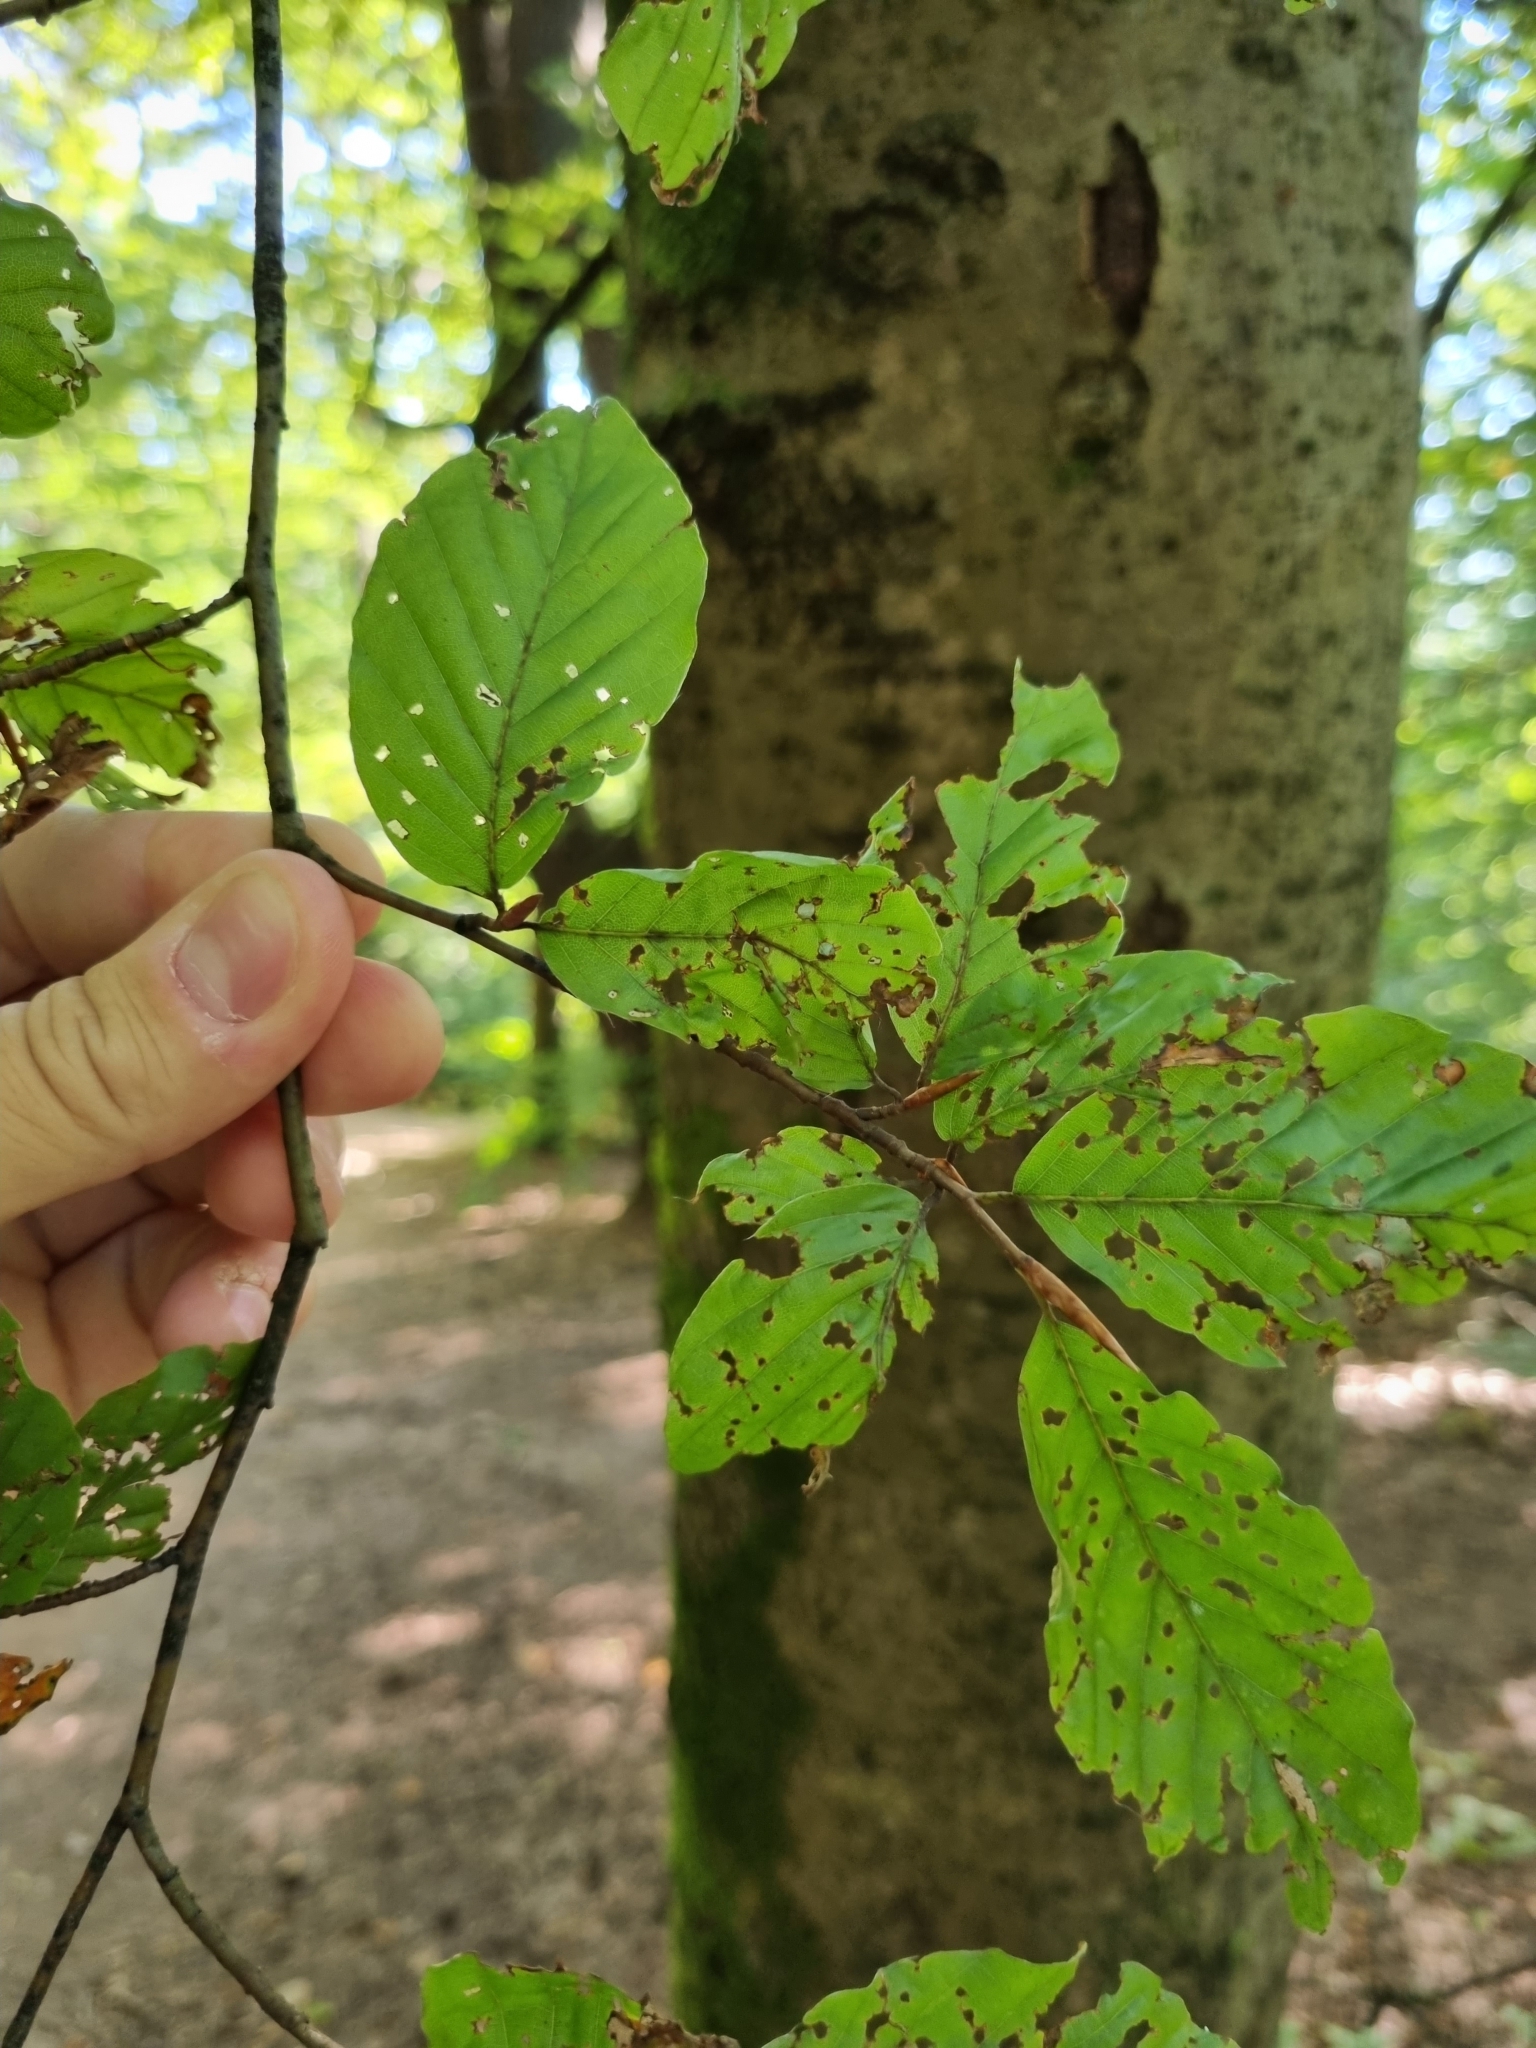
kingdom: Plantae
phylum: Tracheophyta
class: Magnoliopsida
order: Fagales
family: Fagaceae
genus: Fagus
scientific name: Fagus sylvatica
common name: Beech
